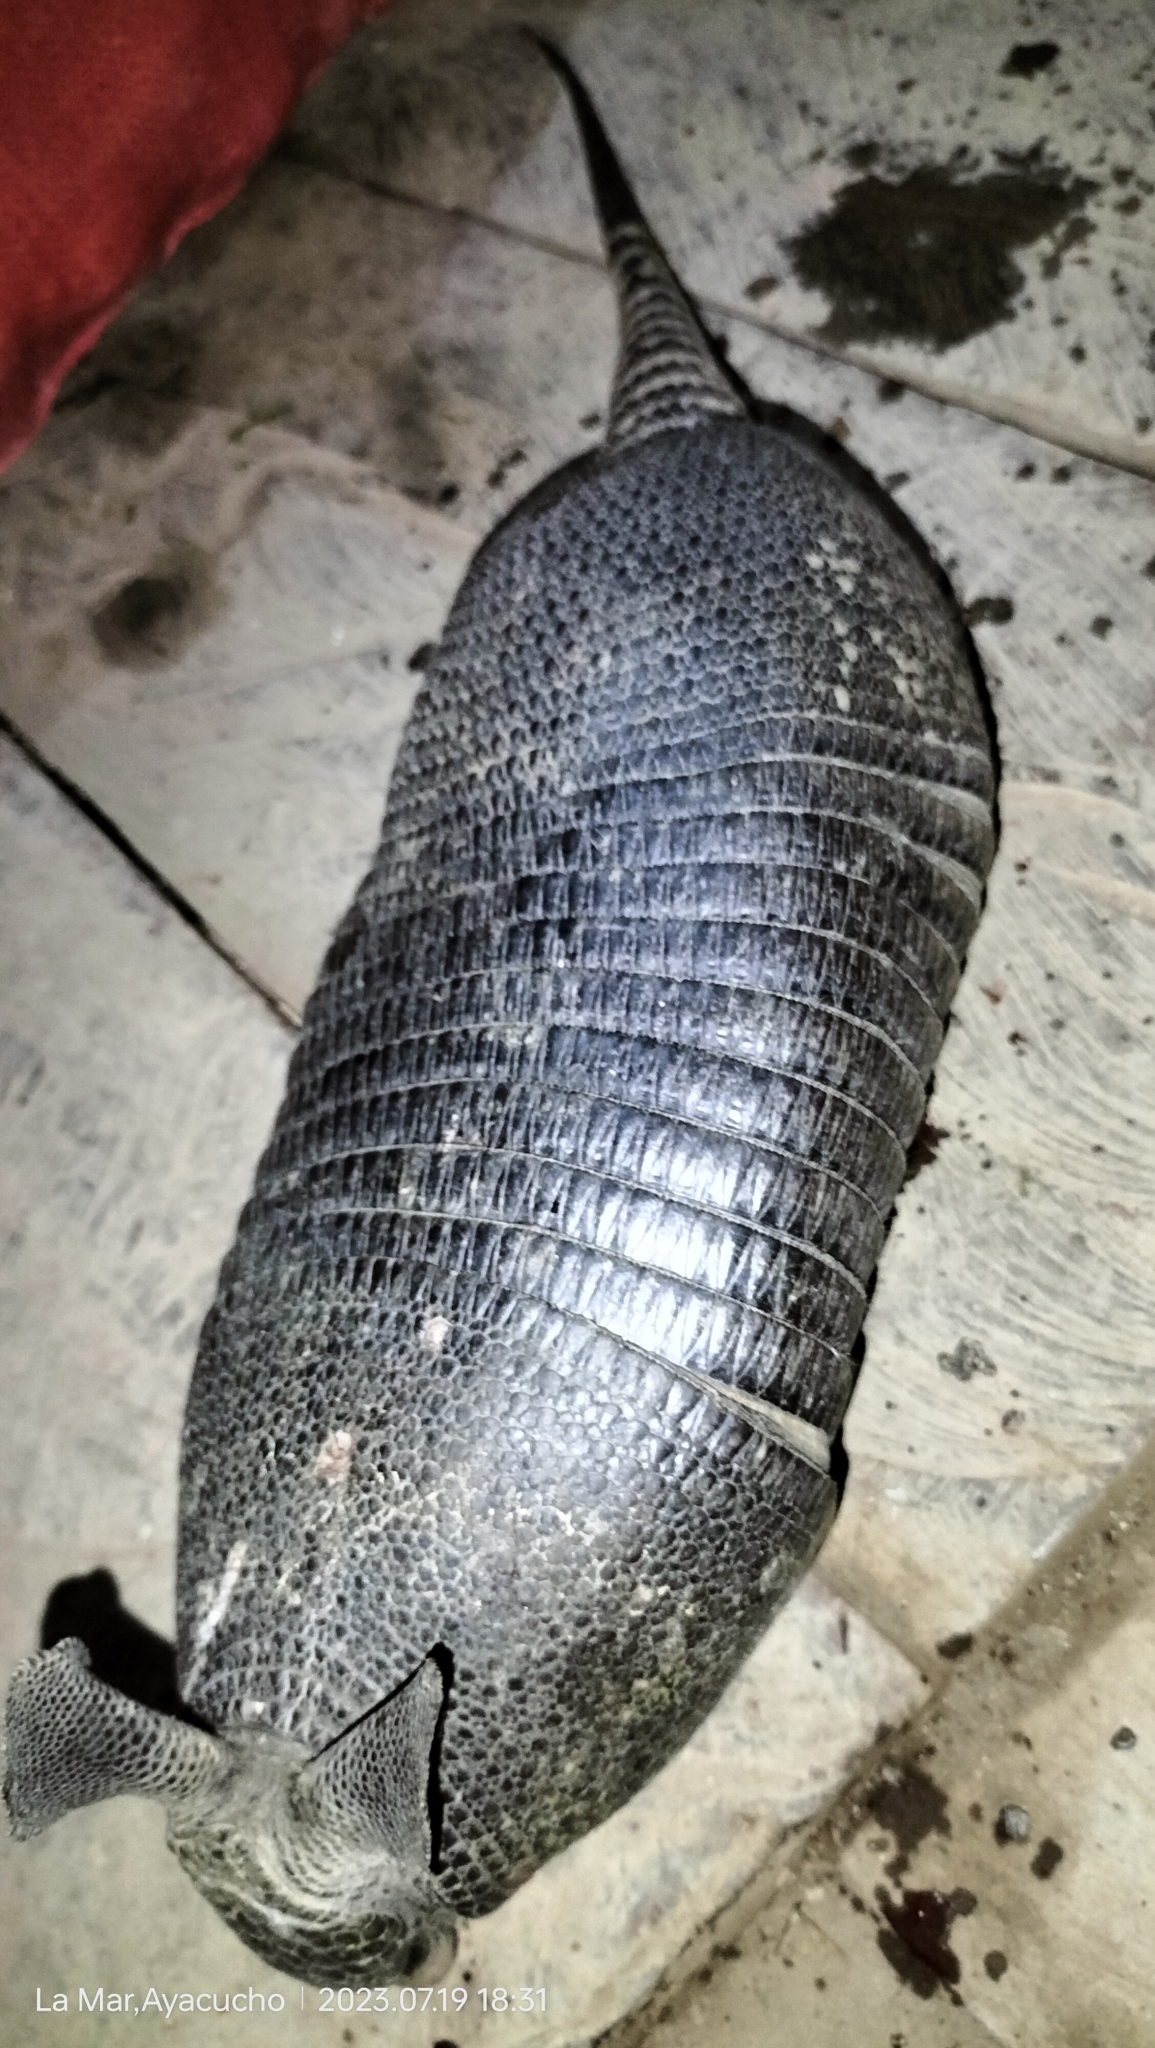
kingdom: Animalia
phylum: Chordata
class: Mammalia
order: Cingulata
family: Dasypodidae
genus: Dasypus
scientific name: Dasypus novemcinctus
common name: Nine-banded armadillo
